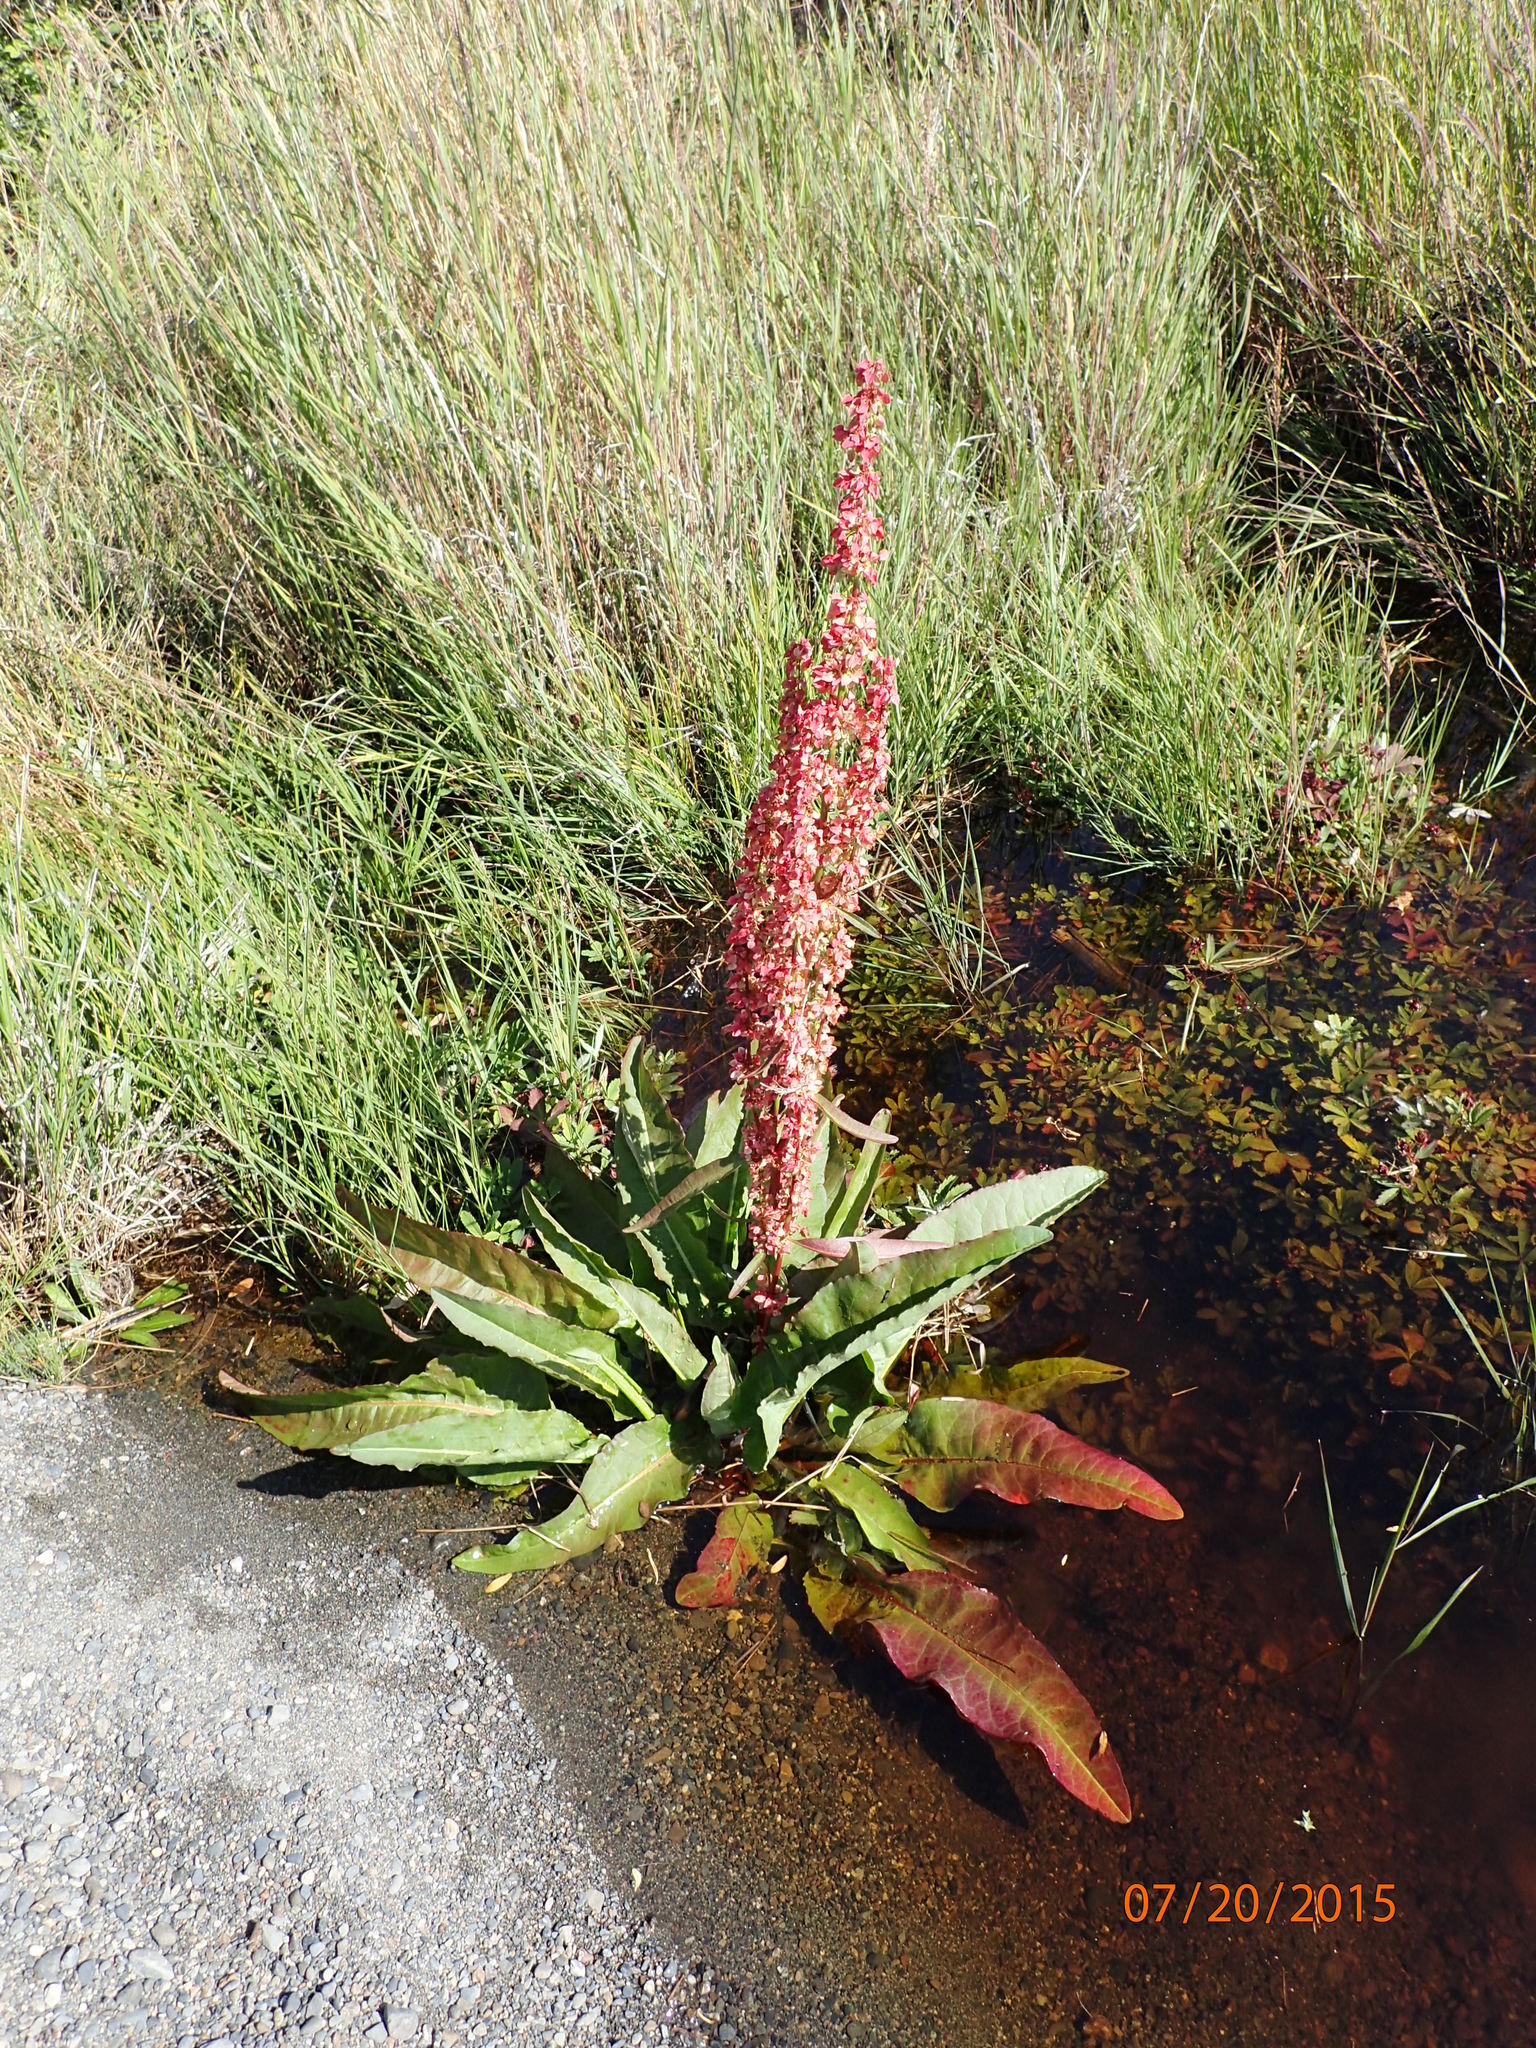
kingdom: Plantae
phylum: Tracheophyta
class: Magnoliopsida
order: Caryophyllales
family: Polygonaceae
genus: Rumex
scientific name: Rumex occidentalis
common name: Western dock
